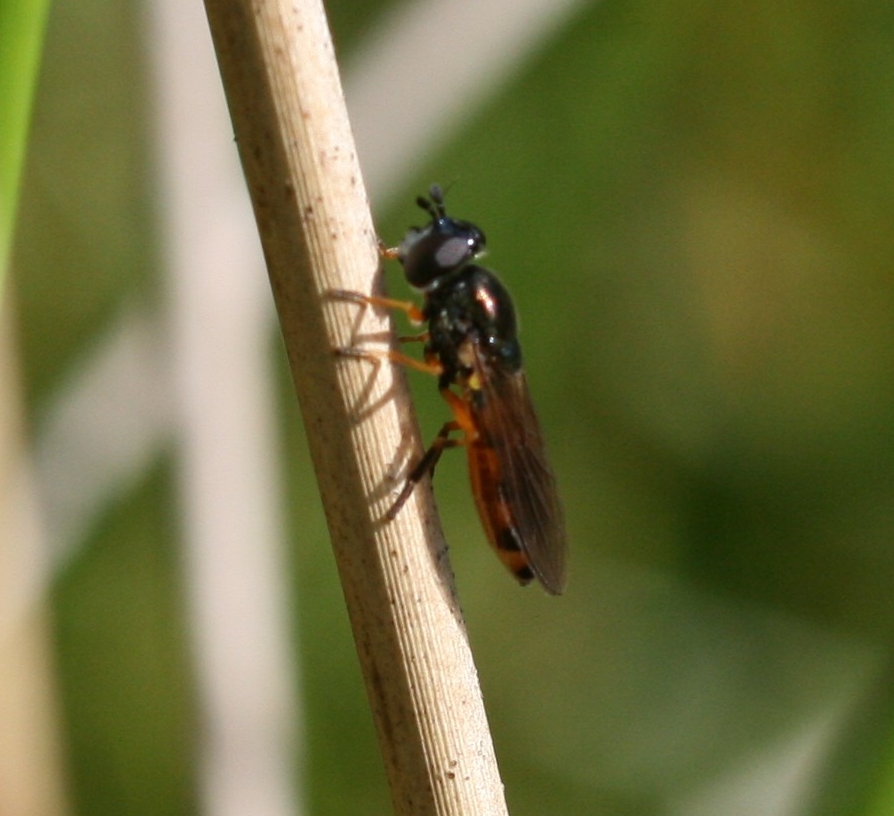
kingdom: Animalia
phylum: Arthropoda
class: Insecta
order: Diptera
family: Syrphidae
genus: Pyrophaena
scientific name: Pyrophaena granditarsa
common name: Hornhand sedgesitter
